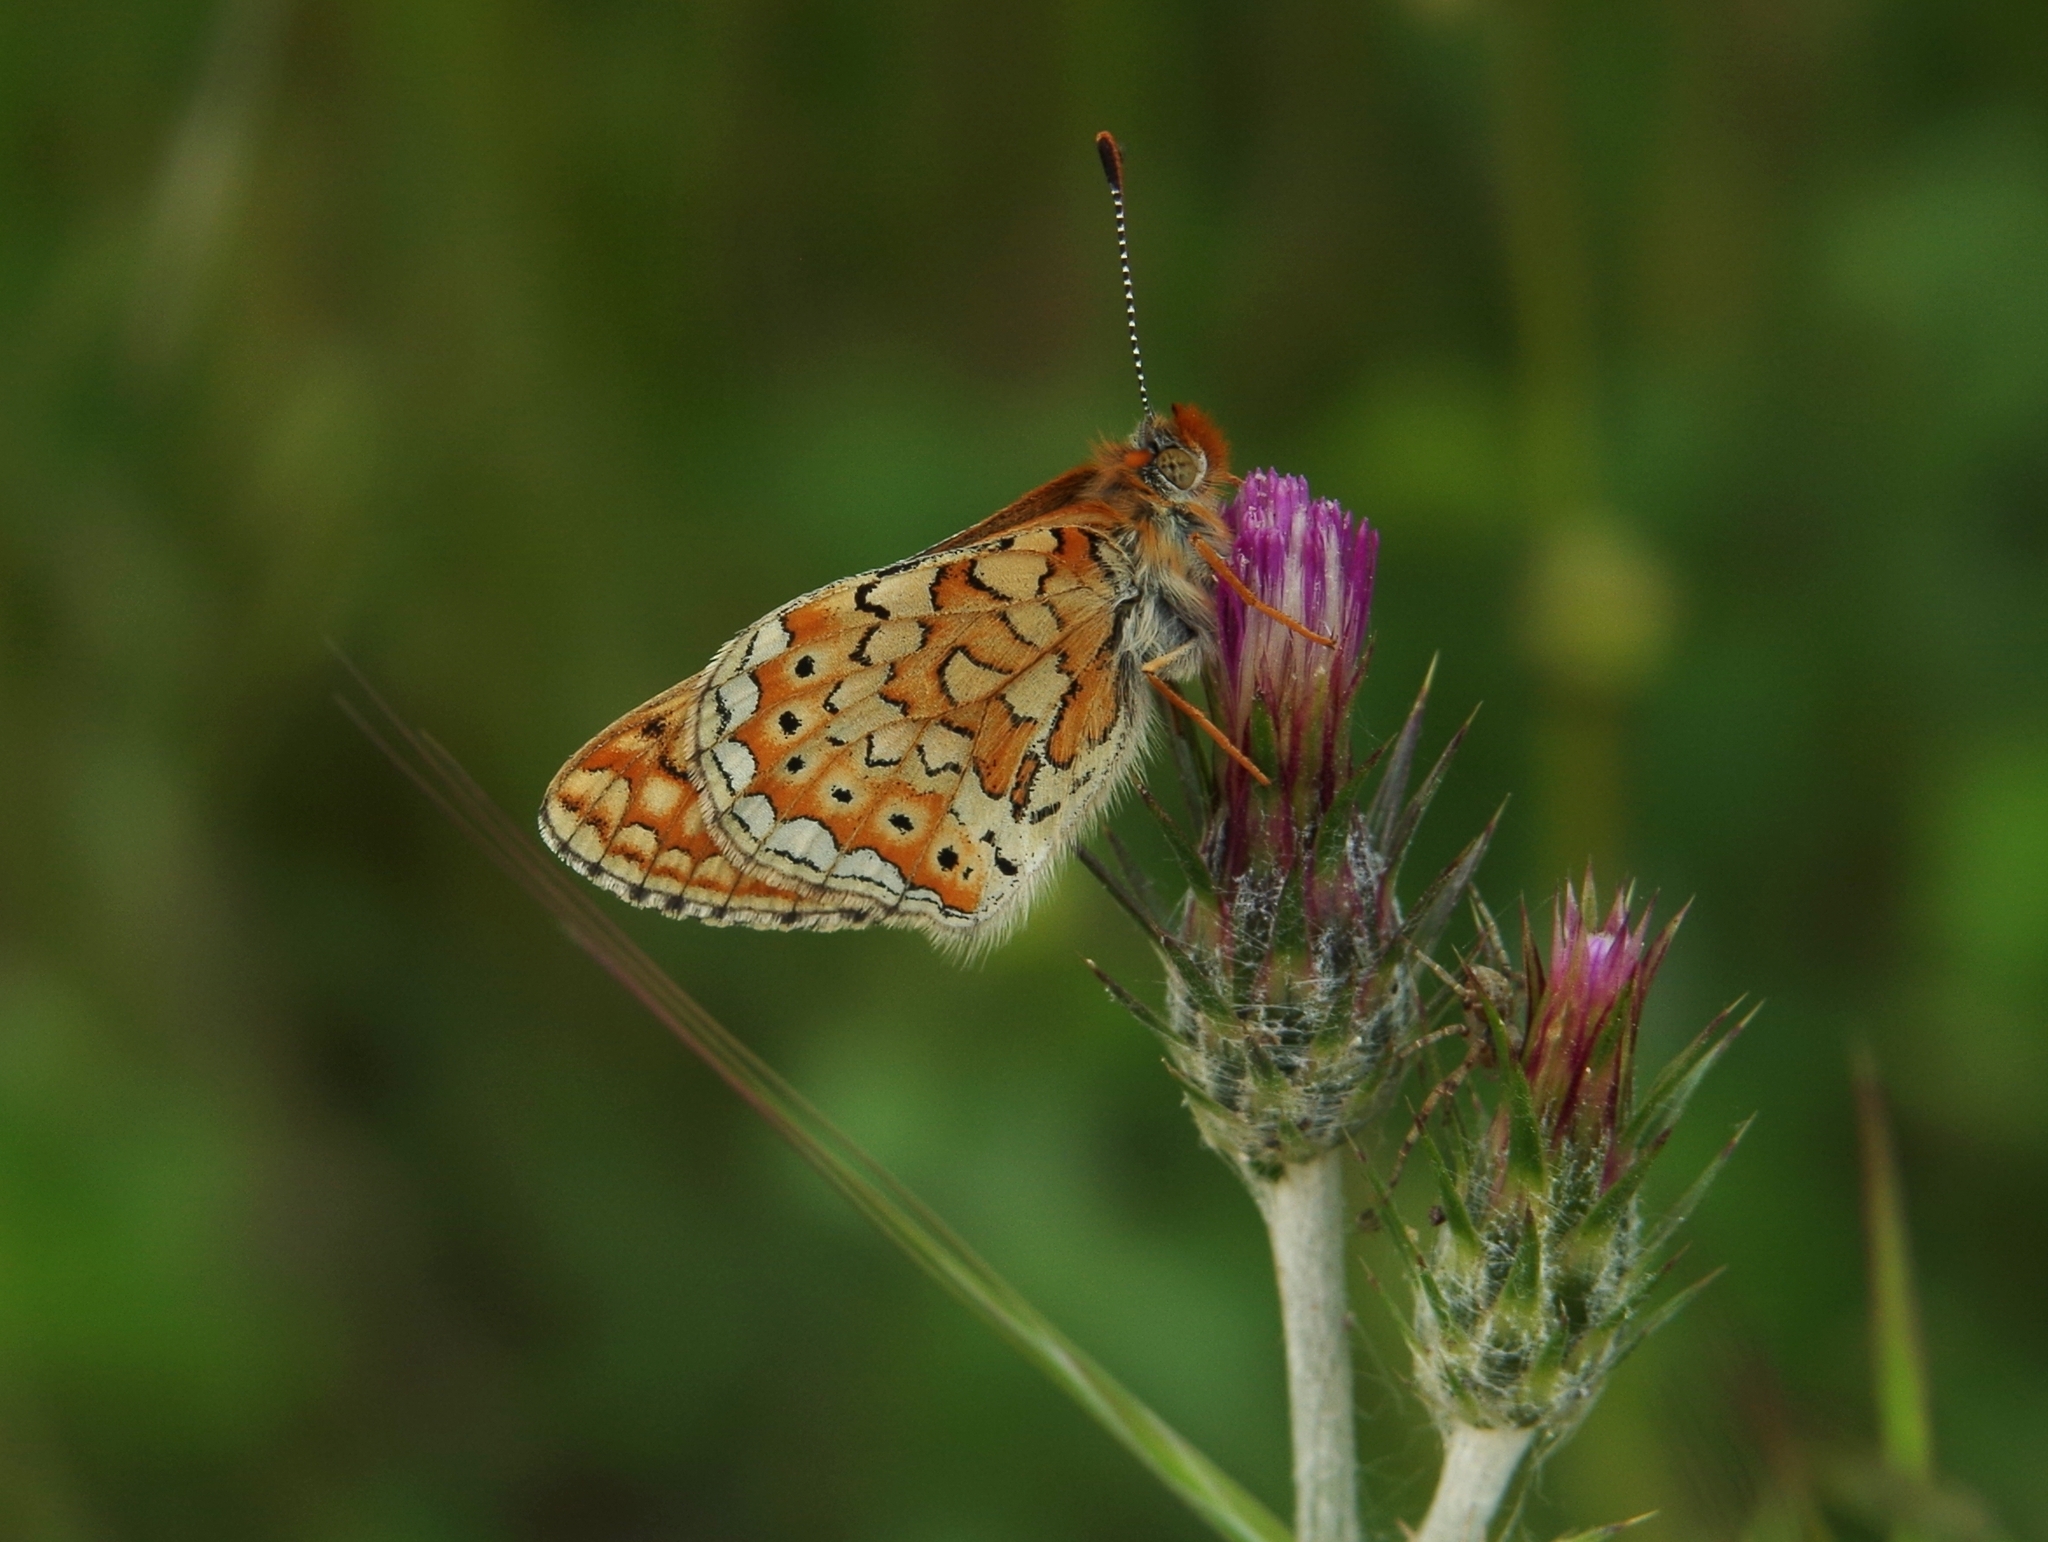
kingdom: Animalia
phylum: Arthropoda
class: Insecta
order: Lepidoptera
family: Nymphalidae
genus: Euphydryas
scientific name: Euphydryas aurinia
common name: Marsh fritillary
